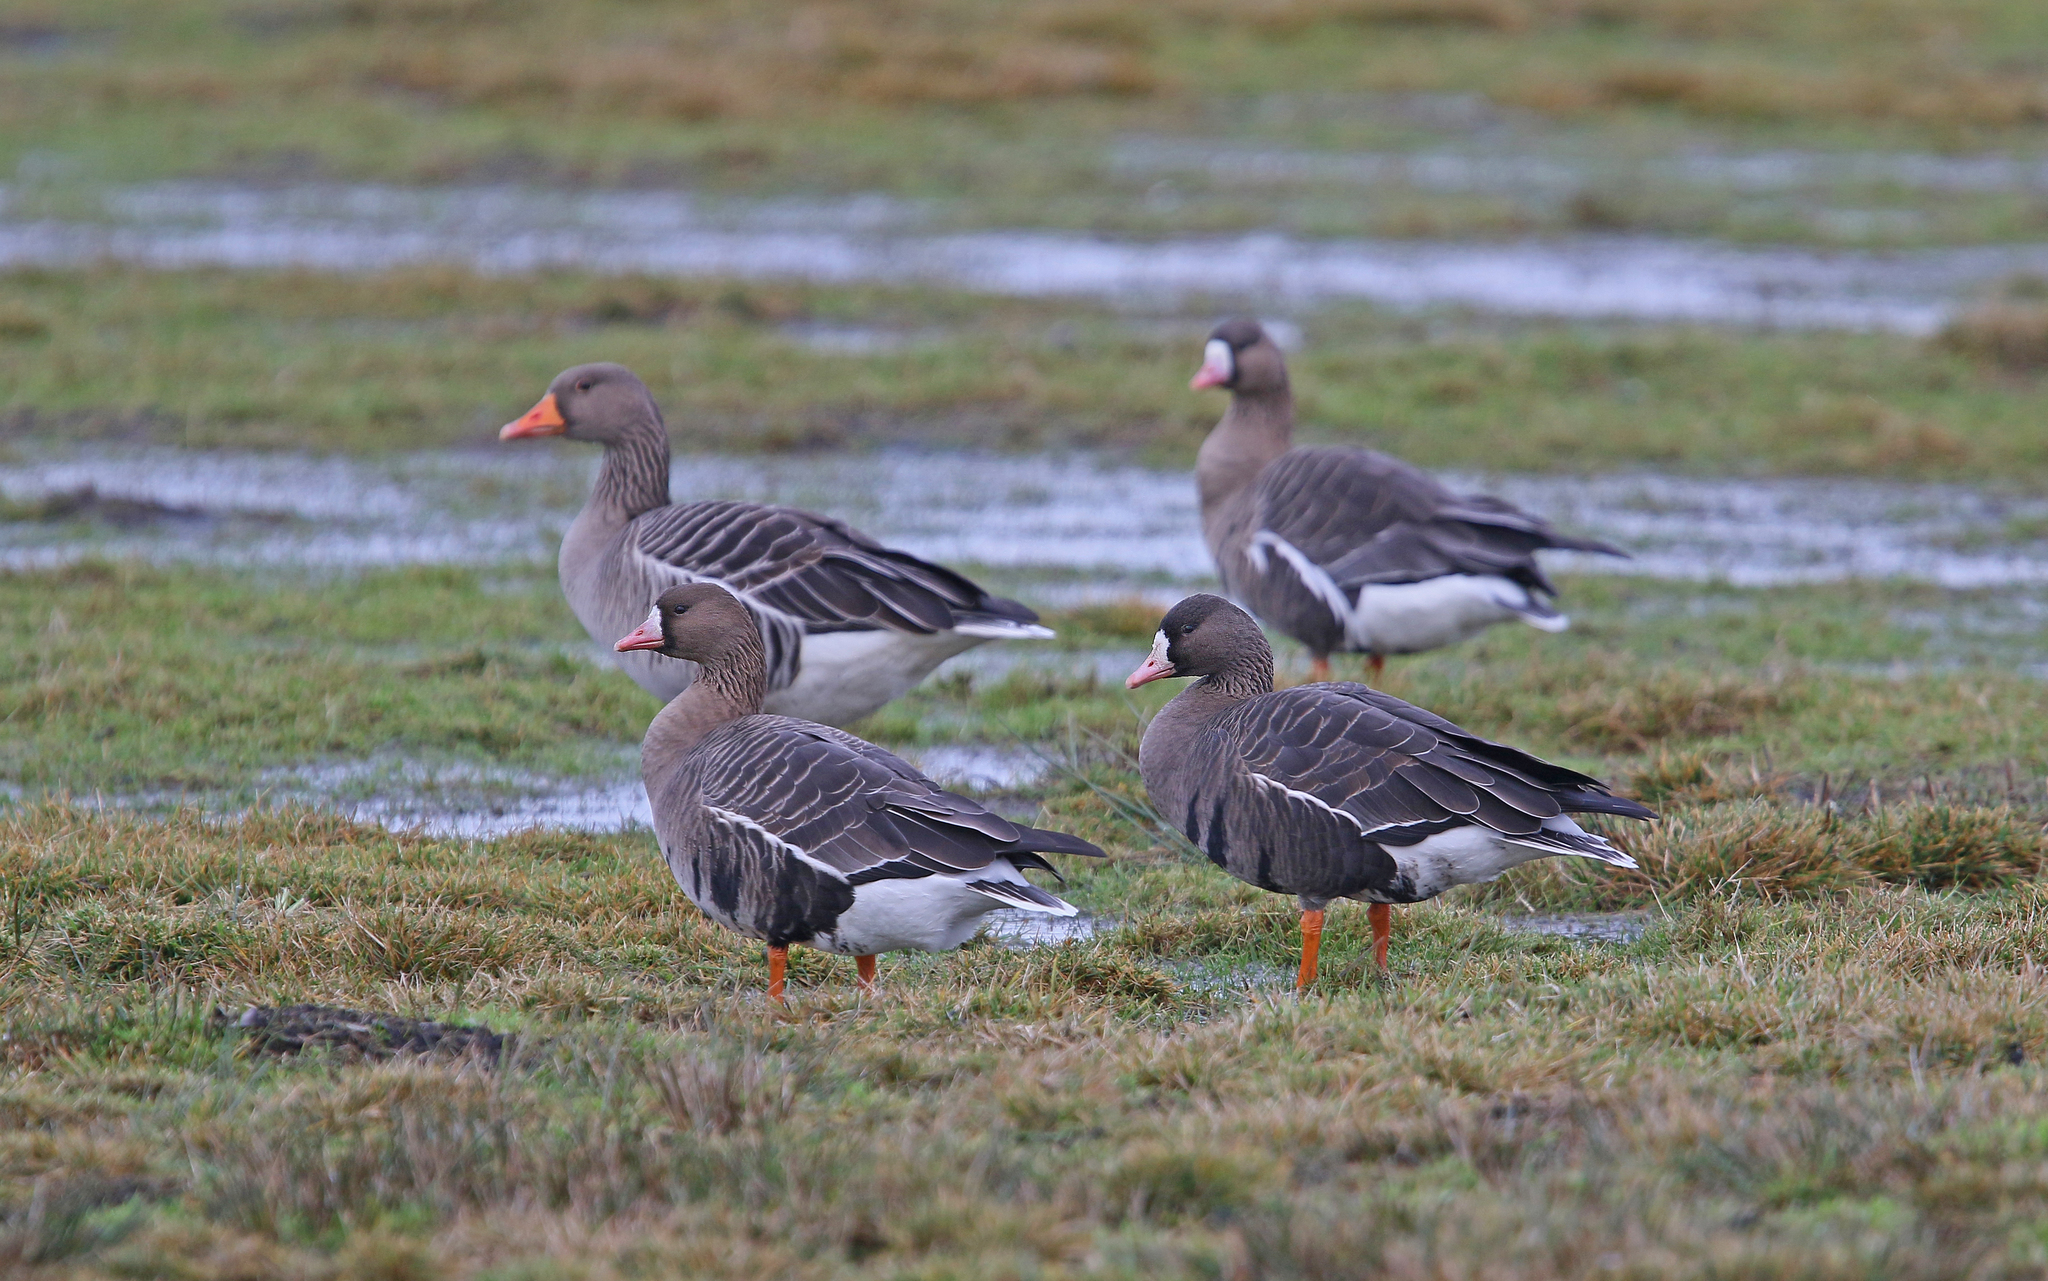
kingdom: Animalia
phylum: Chordata
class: Aves
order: Anseriformes
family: Anatidae
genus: Anser
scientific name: Anser albifrons
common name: Greater white-fronted goose
